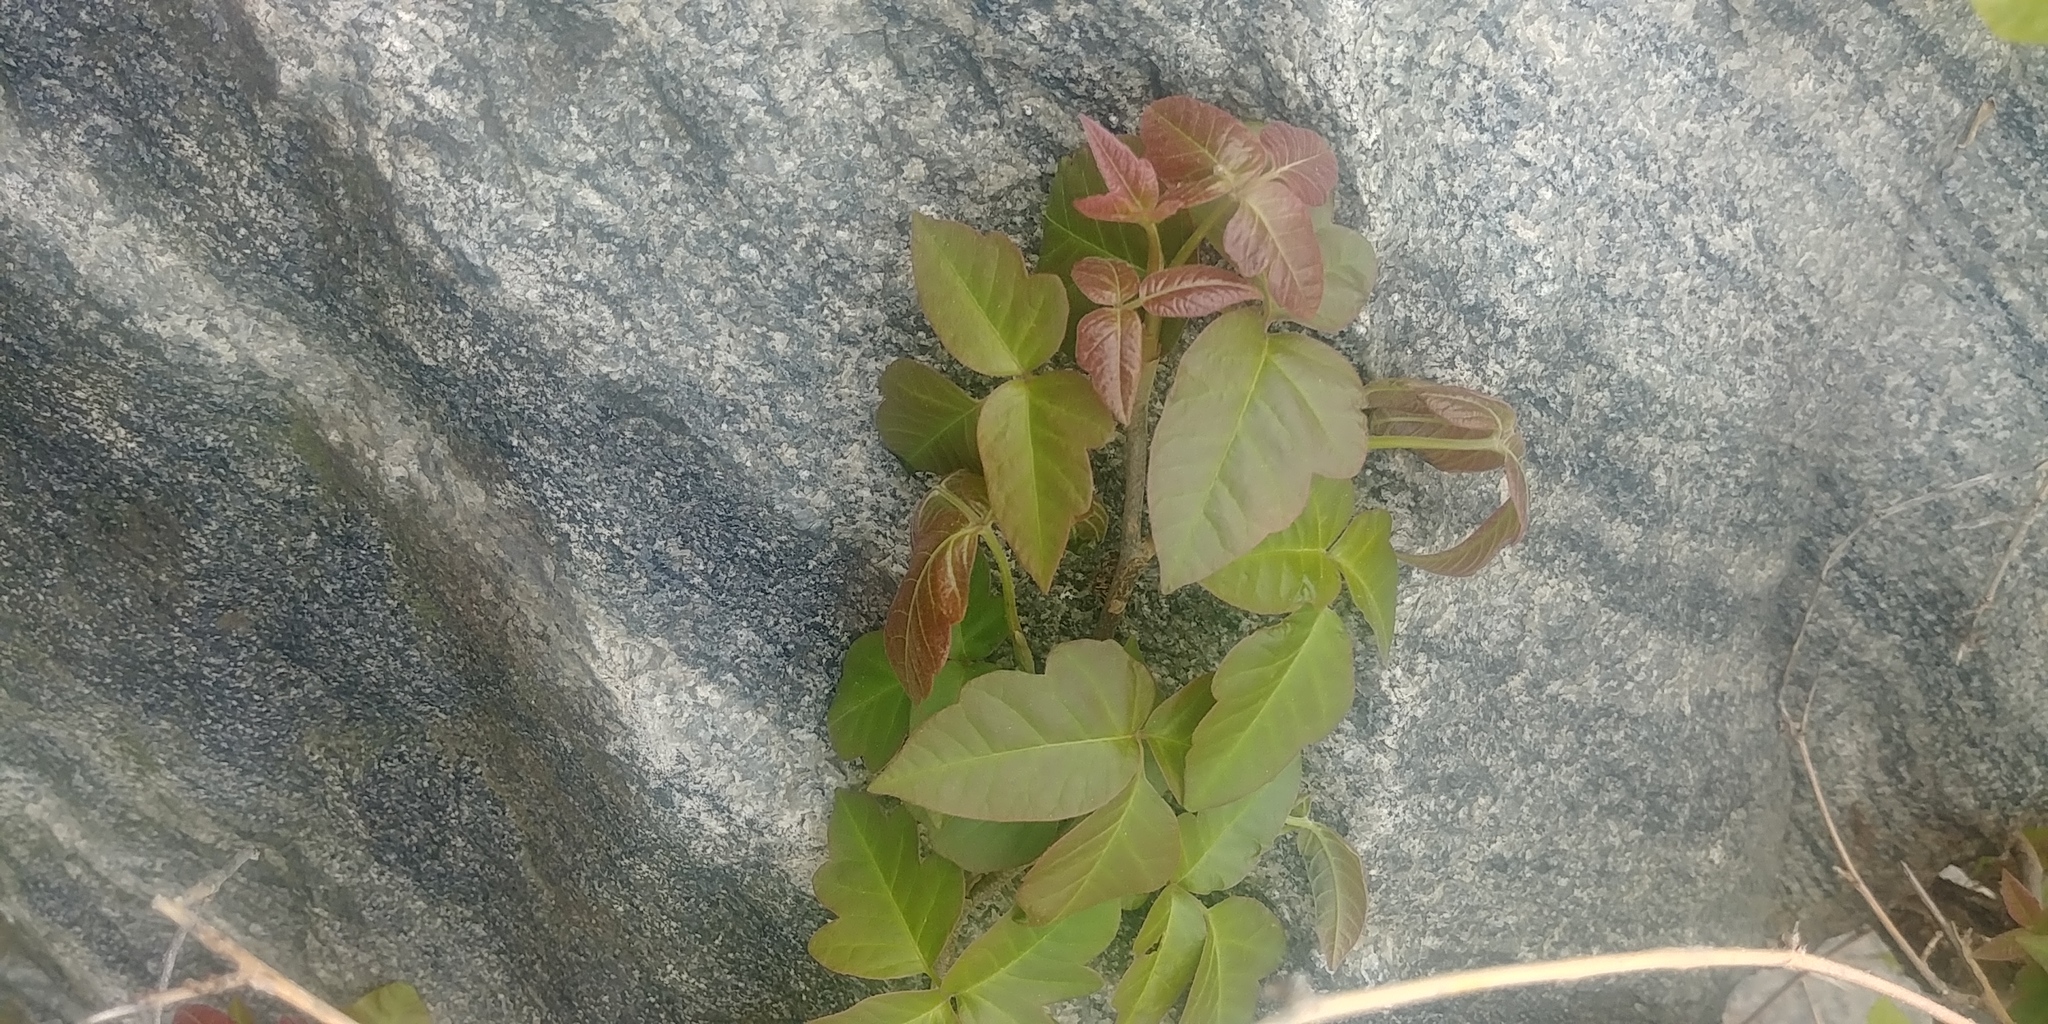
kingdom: Plantae
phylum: Tracheophyta
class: Magnoliopsida
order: Sapindales
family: Anacardiaceae
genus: Toxicodendron
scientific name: Toxicodendron radicans
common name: Poison ivy
